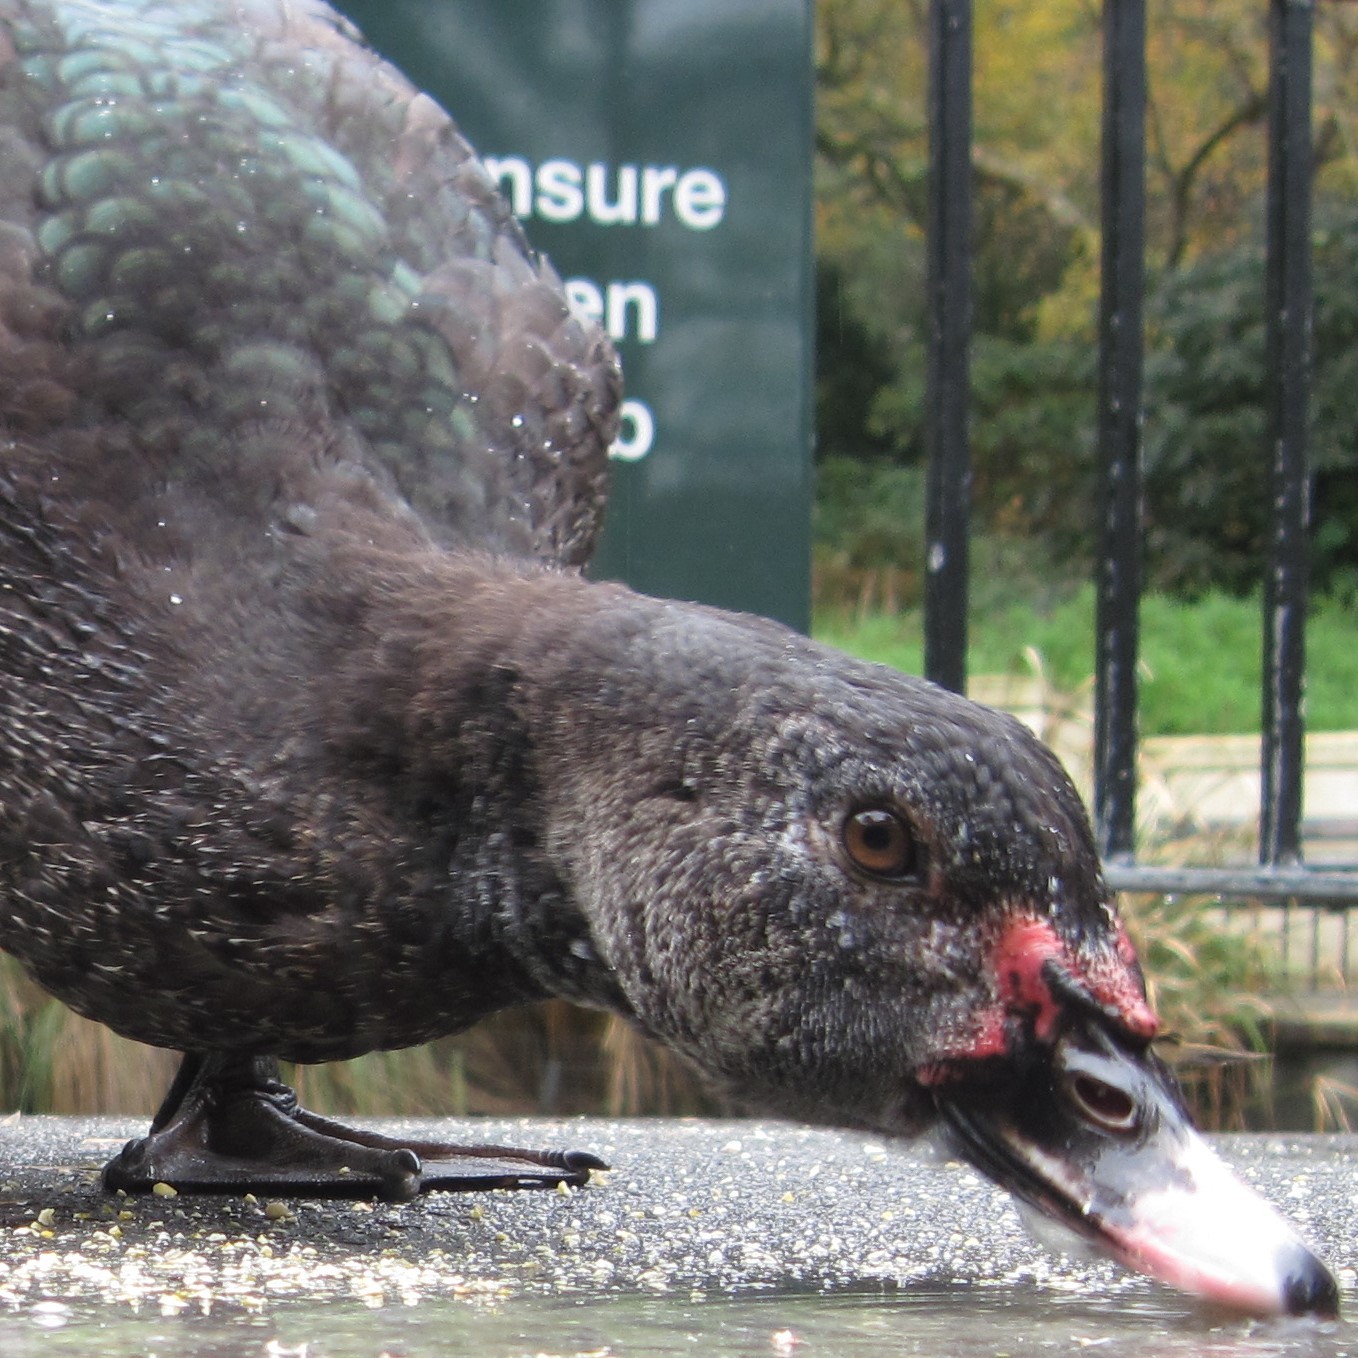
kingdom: Animalia
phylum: Chordata
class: Aves
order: Anseriformes
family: Anatidae
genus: Cairina
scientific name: Cairina moschata
